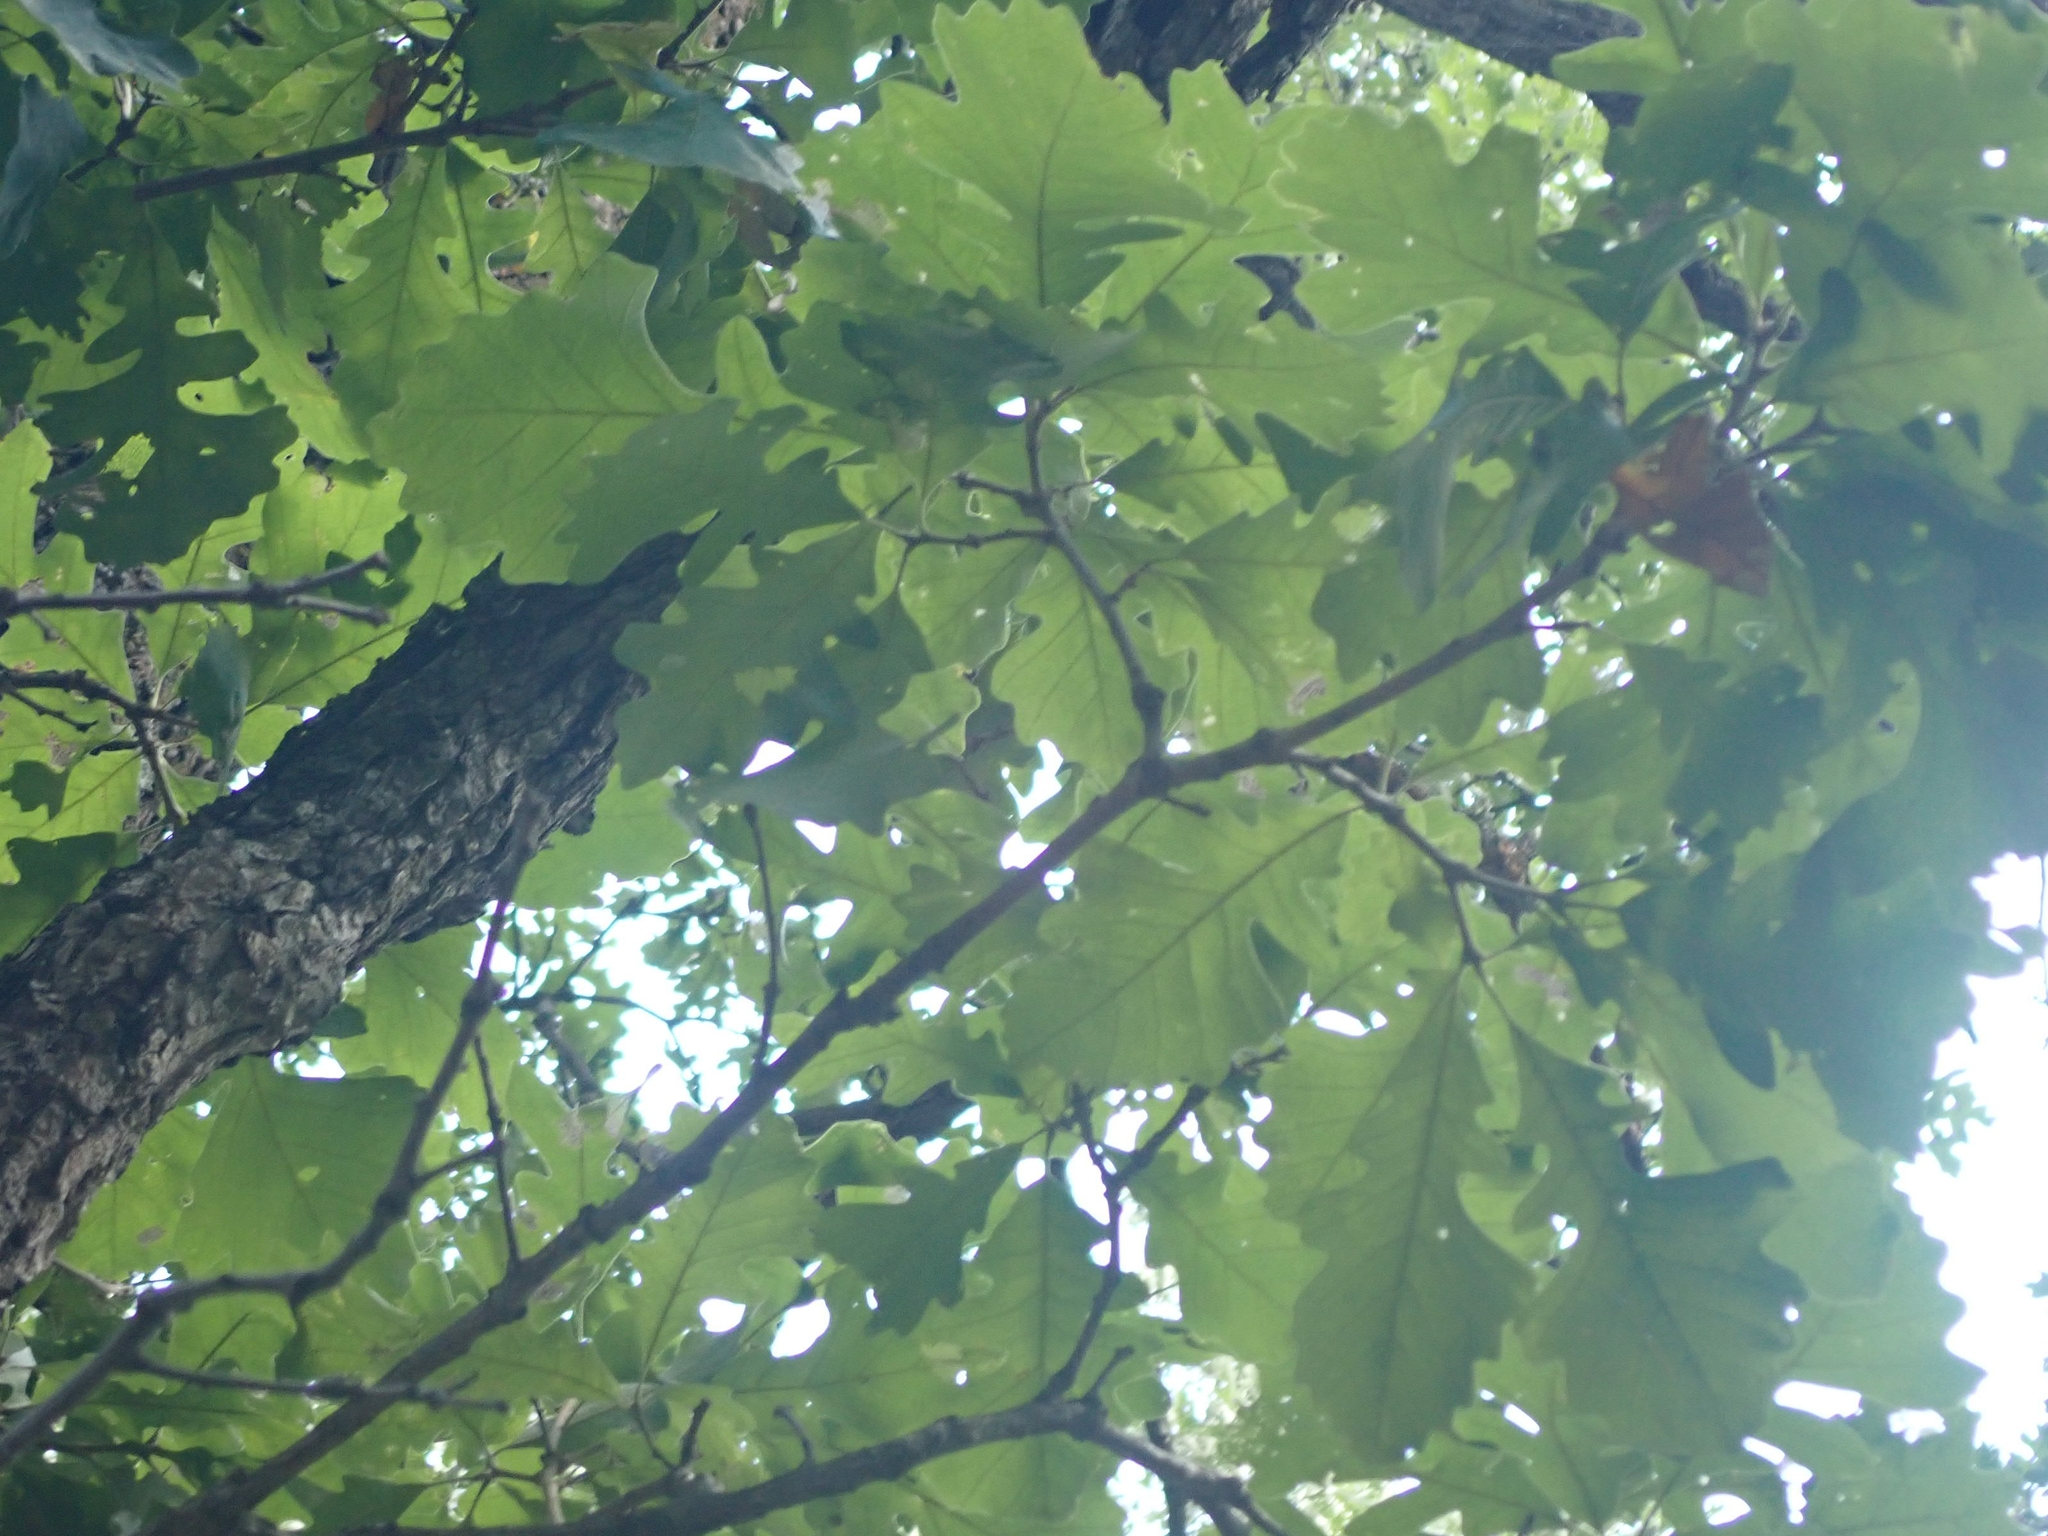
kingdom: Plantae
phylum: Tracheophyta
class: Magnoliopsida
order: Fagales
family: Fagaceae
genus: Quercus
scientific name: Quercus macrocarpa
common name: Bur oak
